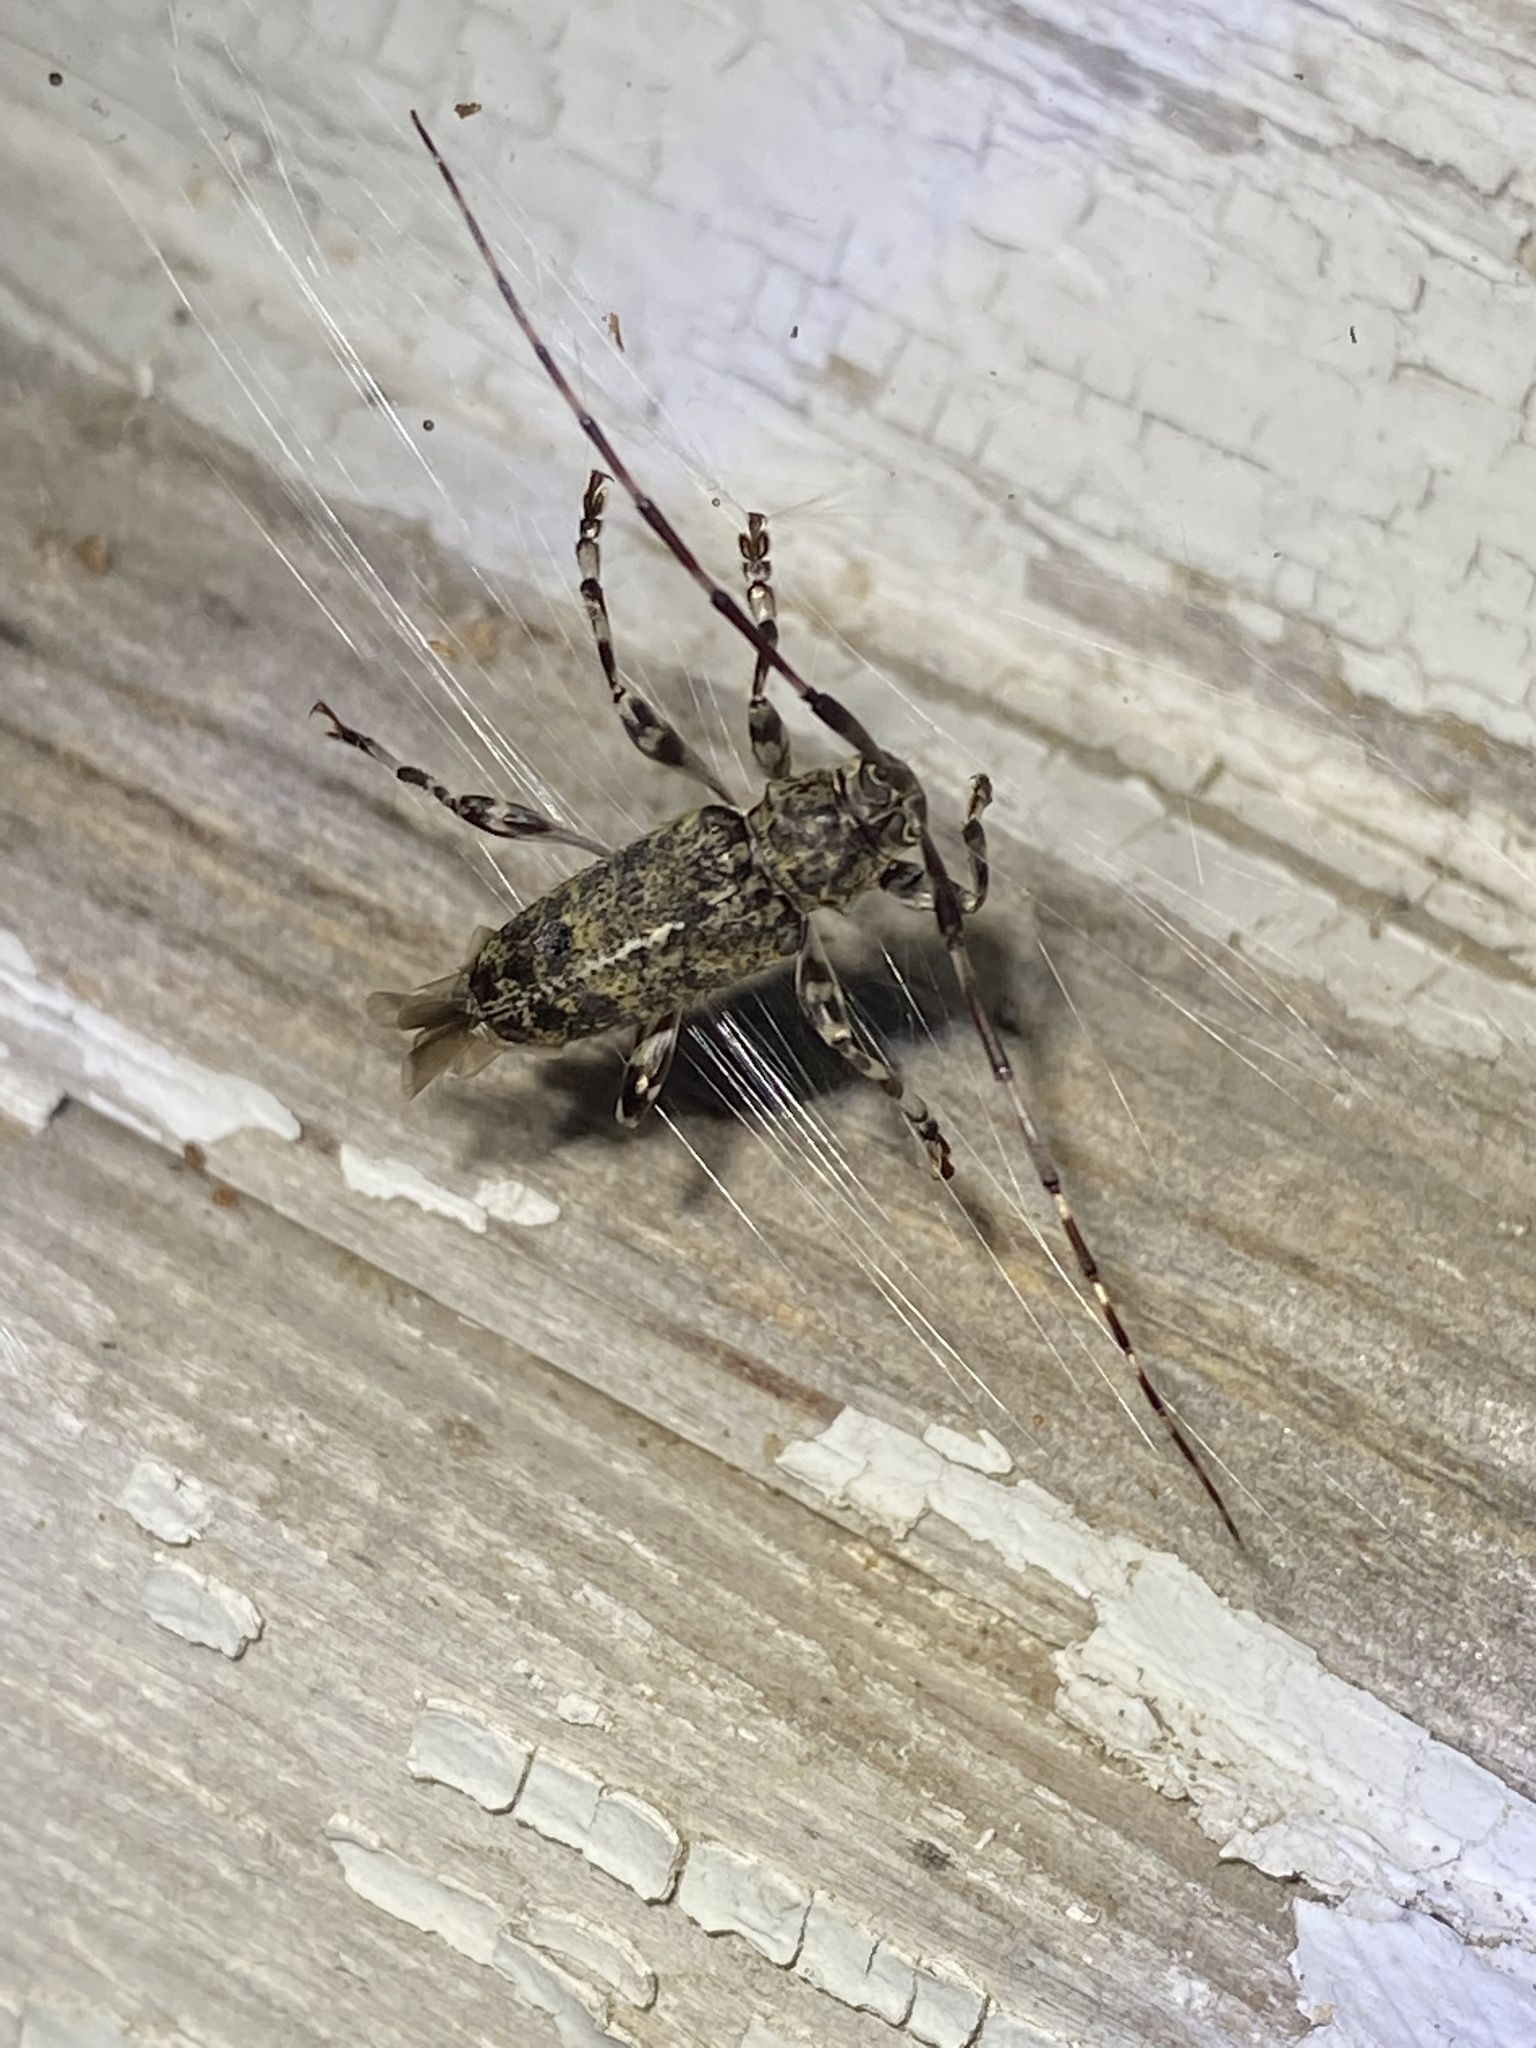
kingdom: Animalia
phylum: Arthropoda
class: Insecta
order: Coleoptera
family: Cerambycidae
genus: Graphisurus
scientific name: Graphisurus fasciatus
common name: Banded graphisurus
